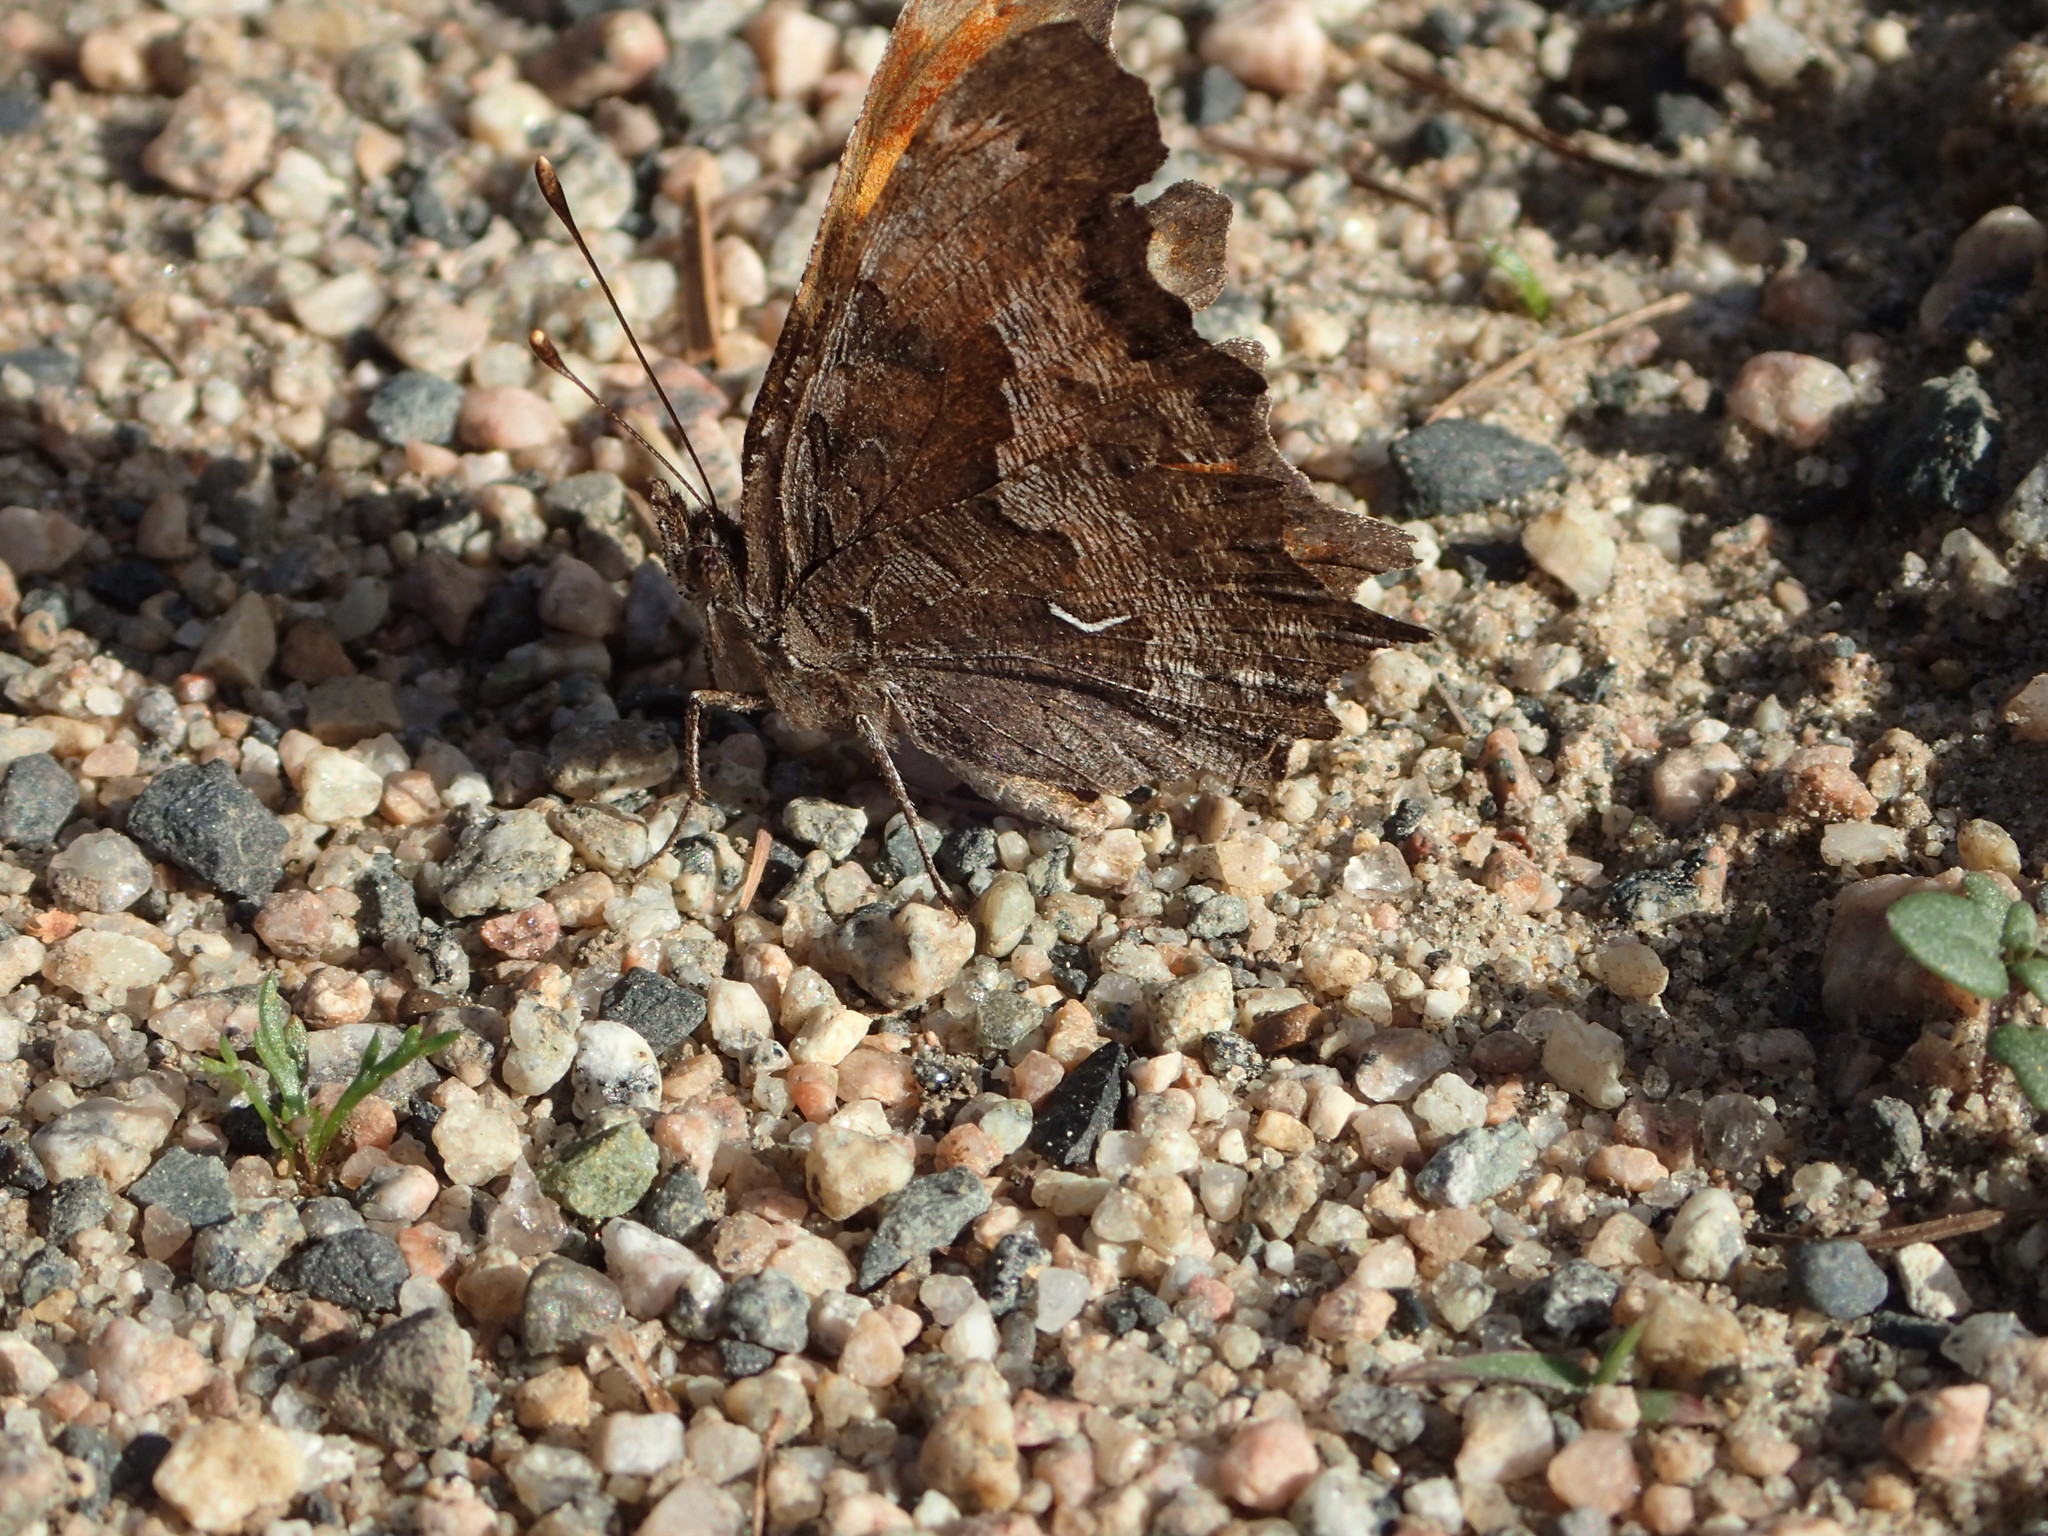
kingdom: Animalia
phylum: Arthropoda
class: Insecta
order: Lepidoptera
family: Nymphalidae
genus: Polygonia
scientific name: Polygonia gracilis
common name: Hoary comma
